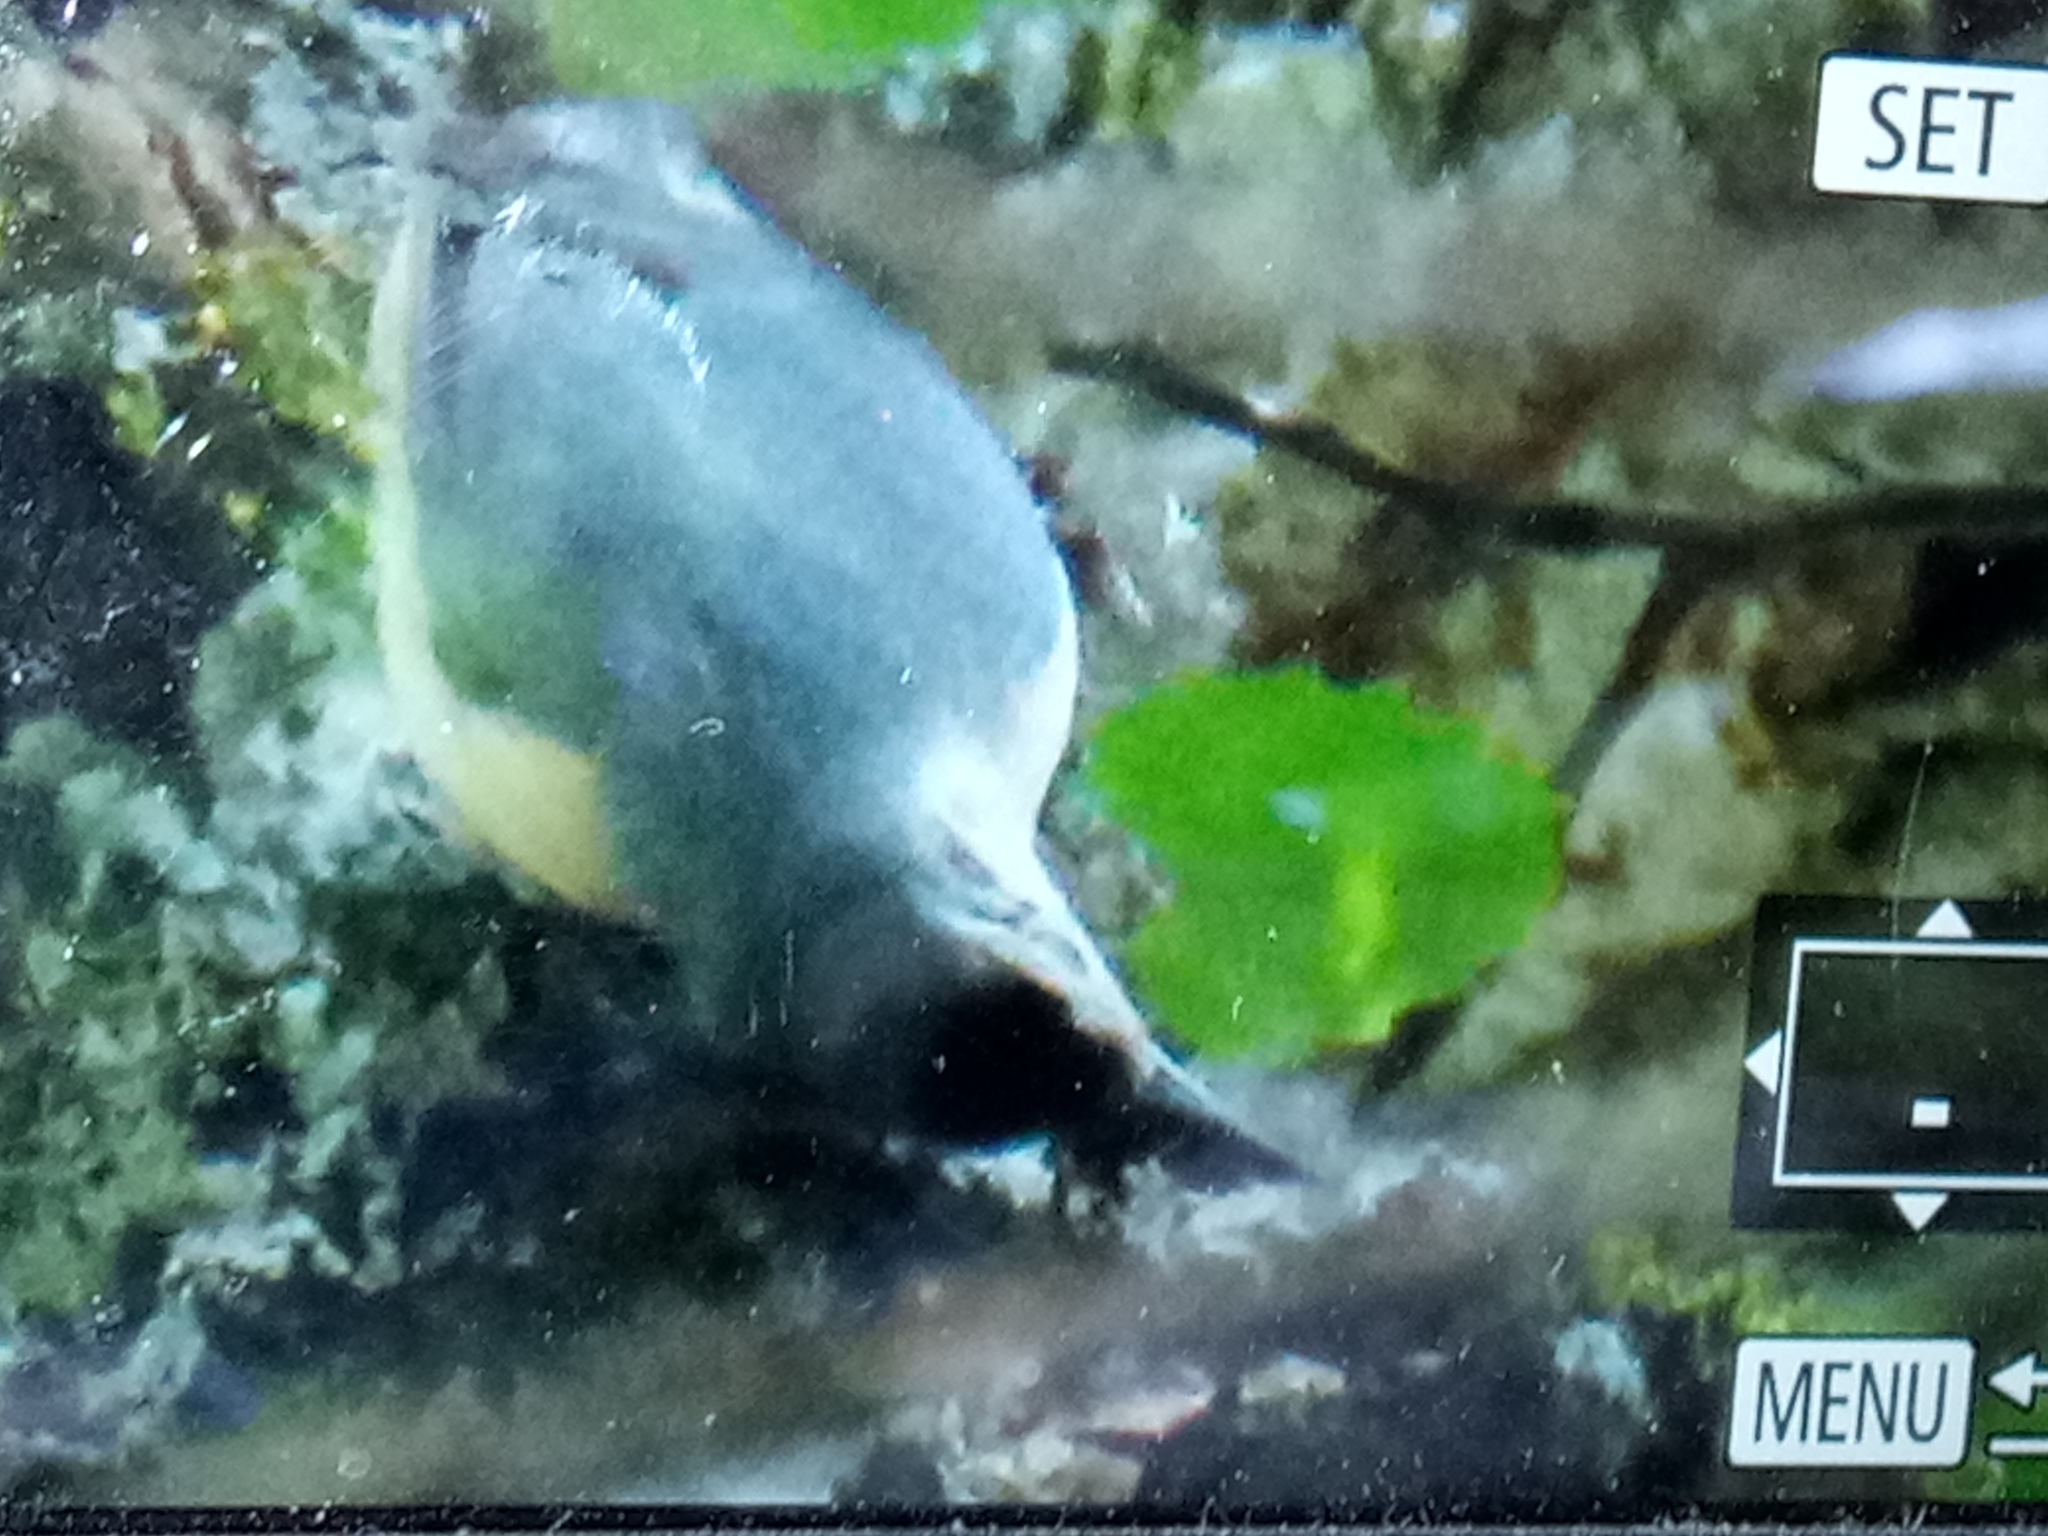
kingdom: Animalia
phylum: Chordata
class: Aves
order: Passeriformes
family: Sittidae
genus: Sitta
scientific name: Sitta ledanti
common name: Algerian nuthatch
